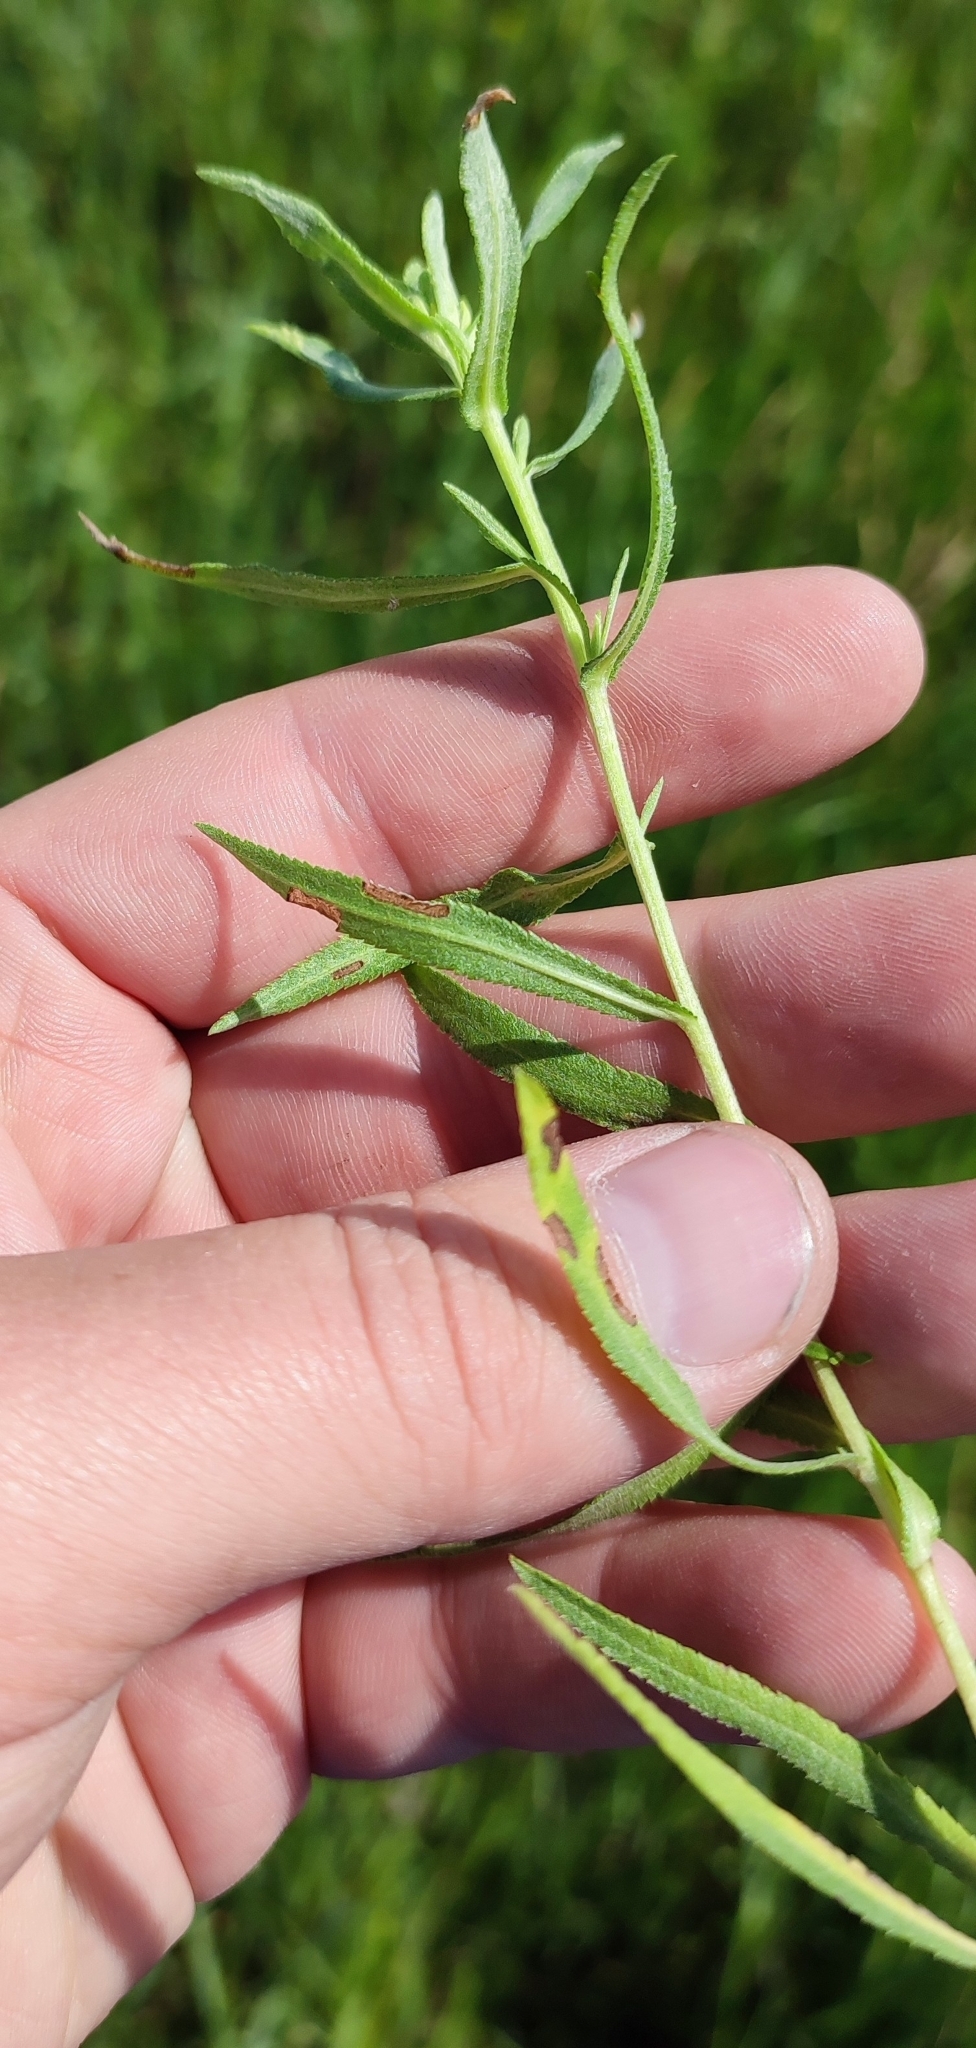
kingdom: Plantae
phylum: Tracheophyta
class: Magnoliopsida
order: Asterales
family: Asteraceae
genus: Achillea
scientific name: Achillea salicifolia
